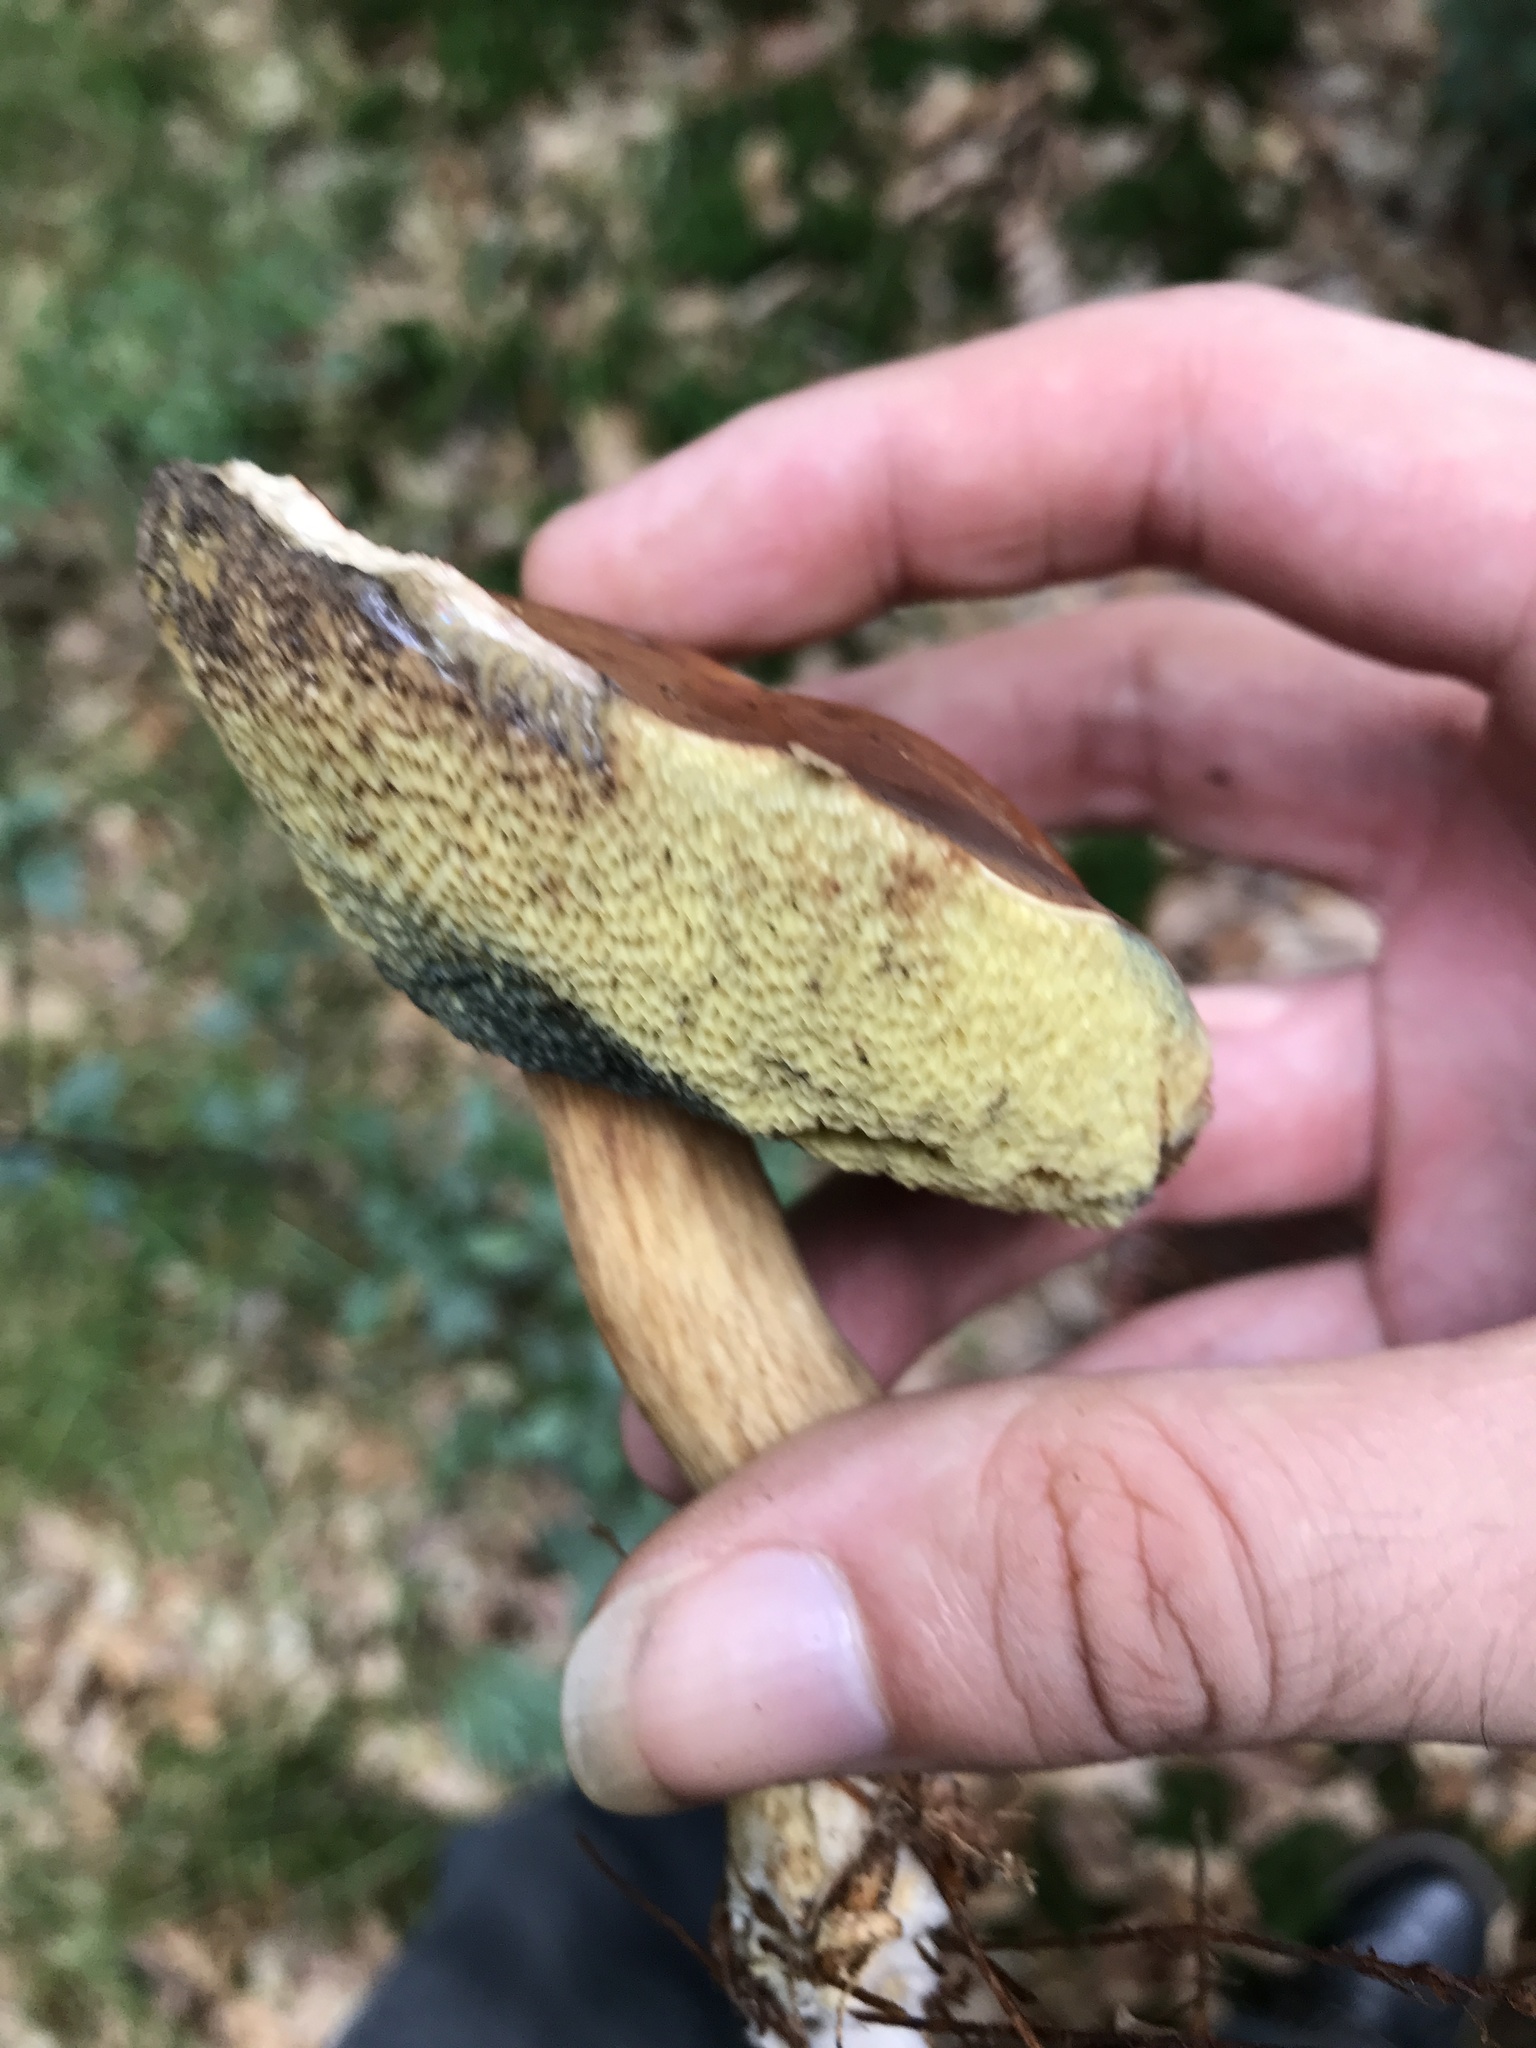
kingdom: Fungi
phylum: Basidiomycota
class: Agaricomycetes
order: Boletales
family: Boletaceae
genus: Imleria
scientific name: Imleria badia
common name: Bay bolete
